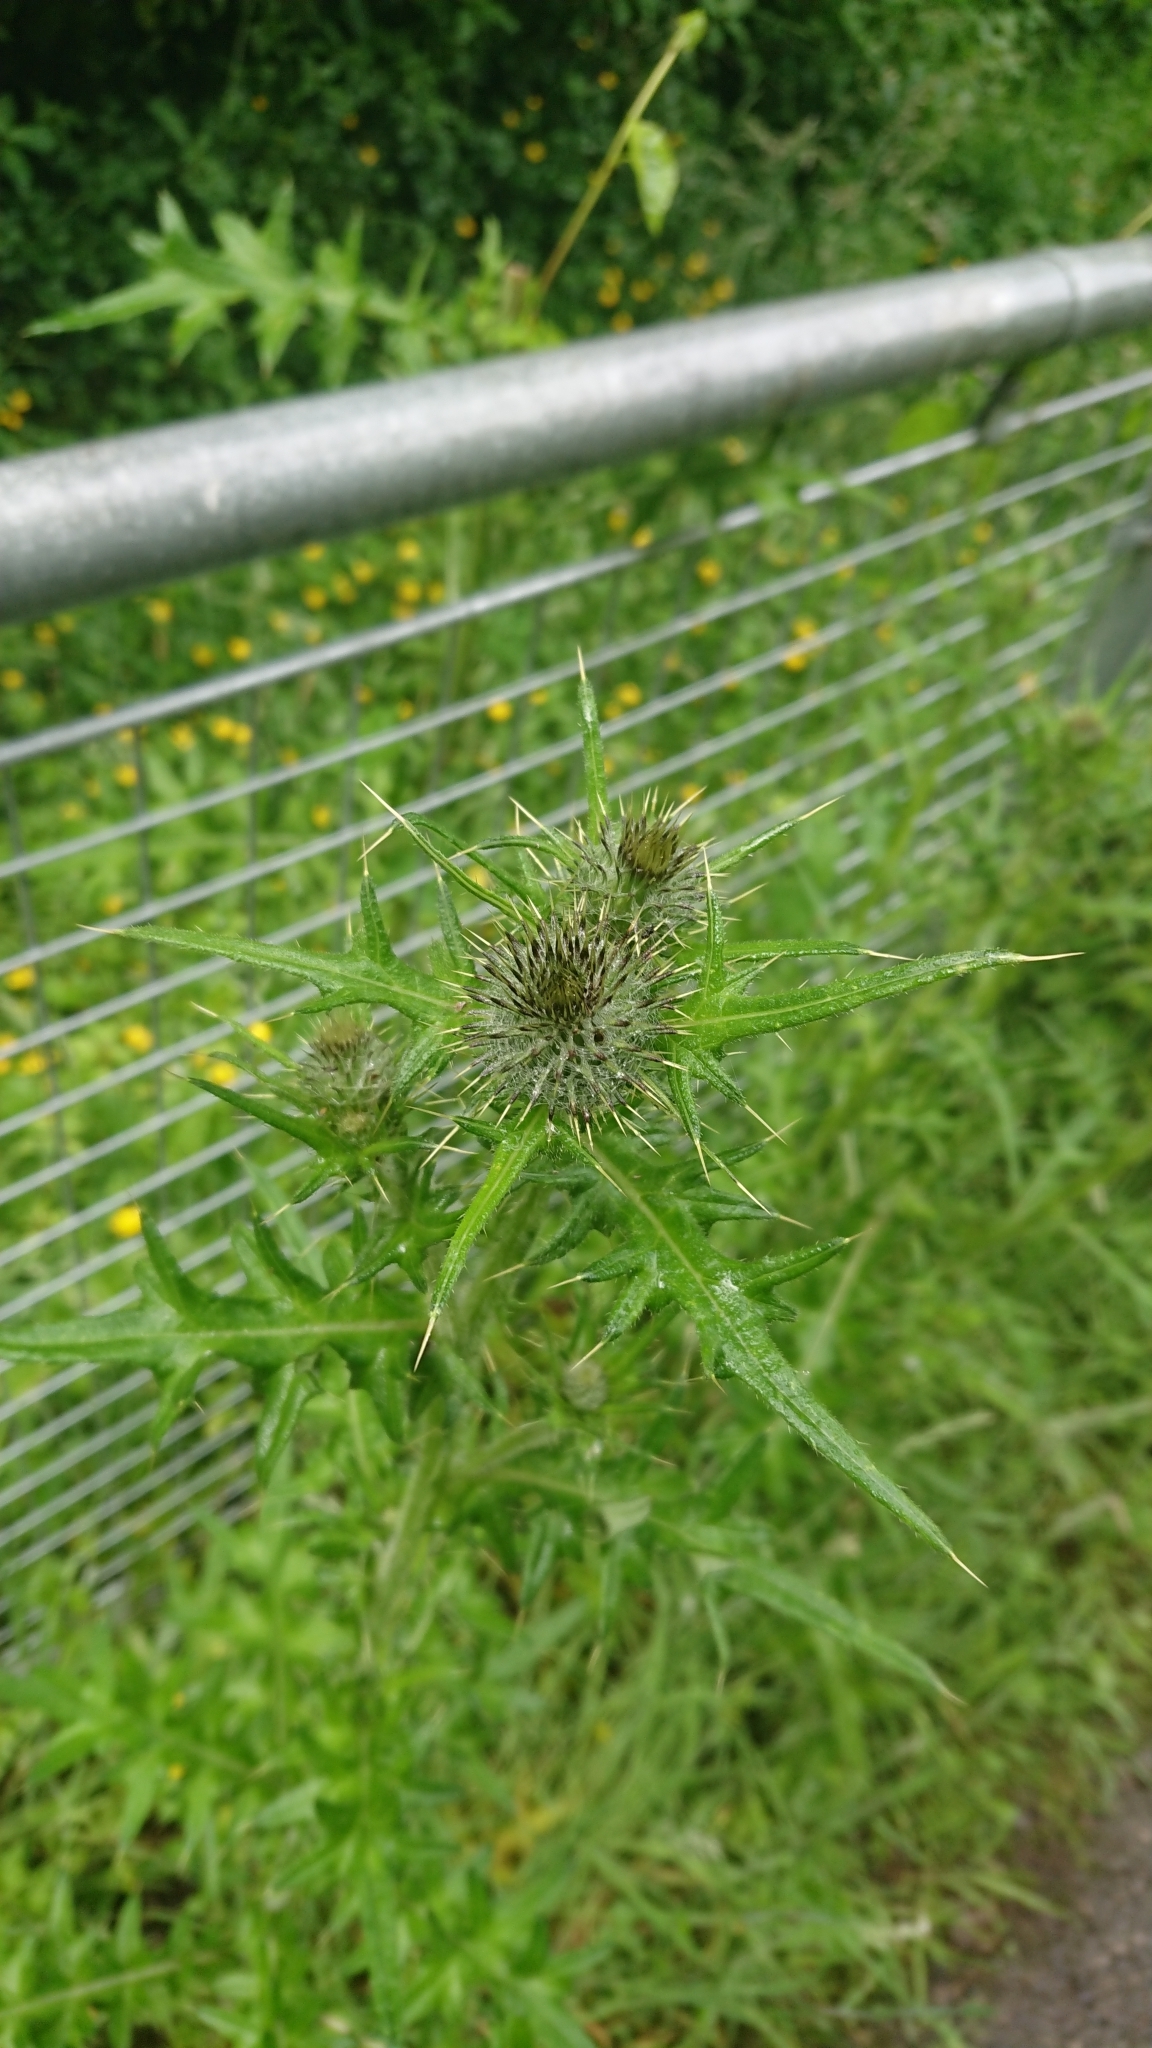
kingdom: Plantae
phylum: Tracheophyta
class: Magnoliopsida
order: Asterales
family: Asteraceae
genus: Cirsium
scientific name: Cirsium vulgare
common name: Bull thistle
